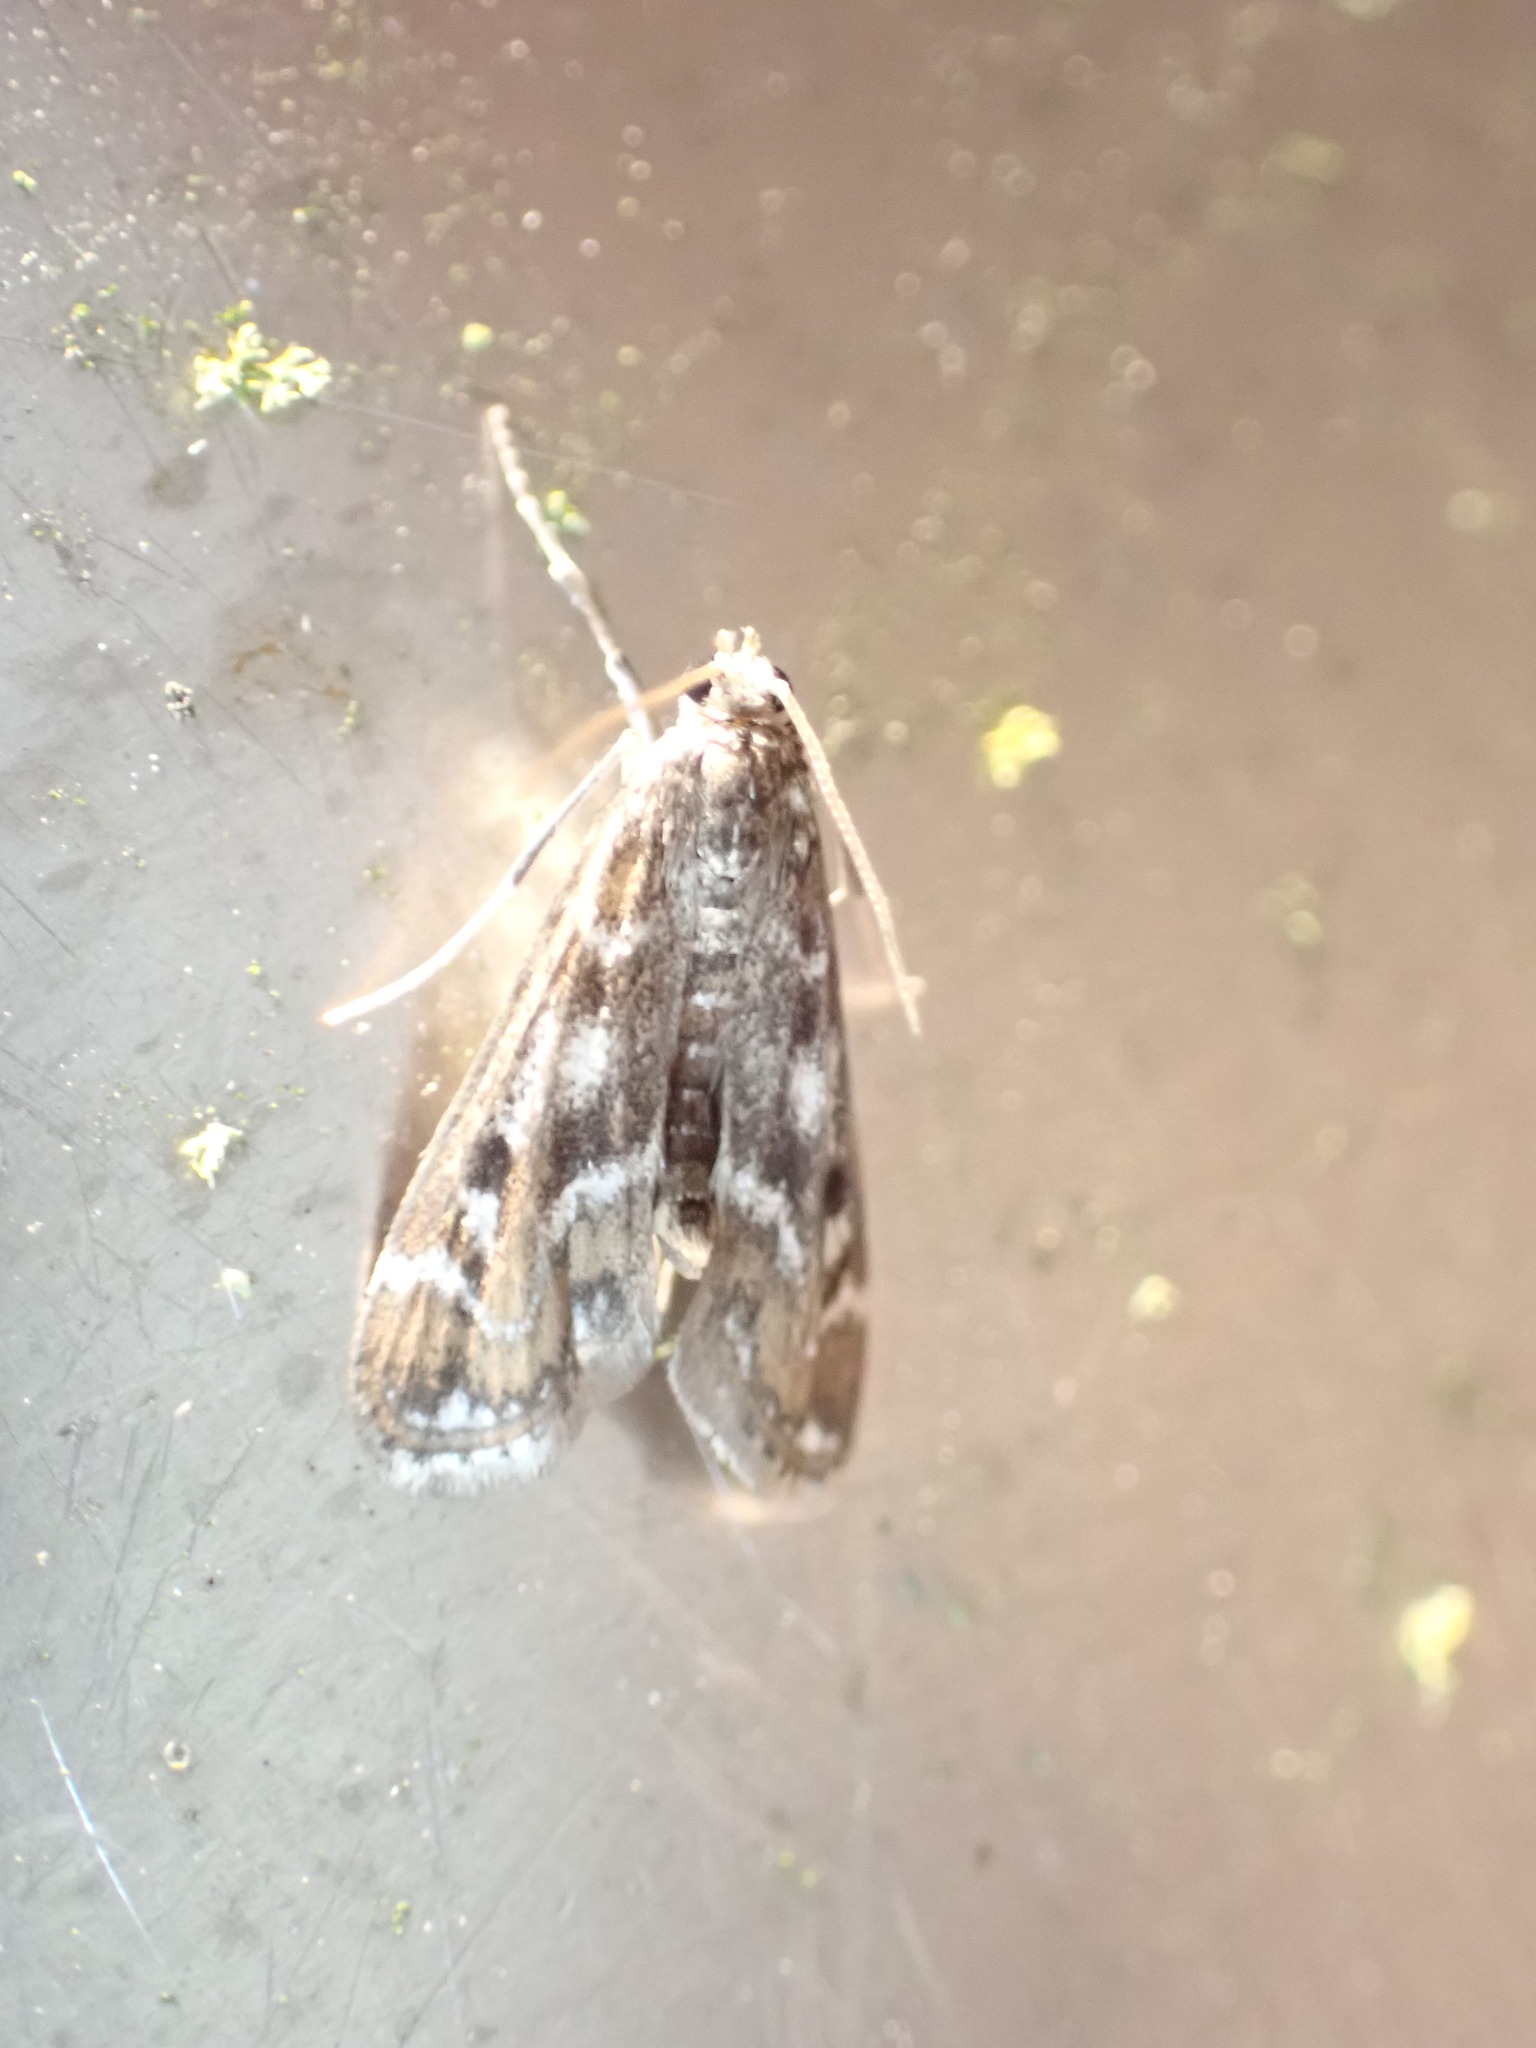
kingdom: Animalia
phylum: Arthropoda
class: Insecta
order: Lepidoptera
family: Crambidae
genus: Hygraula
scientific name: Hygraula nitens
